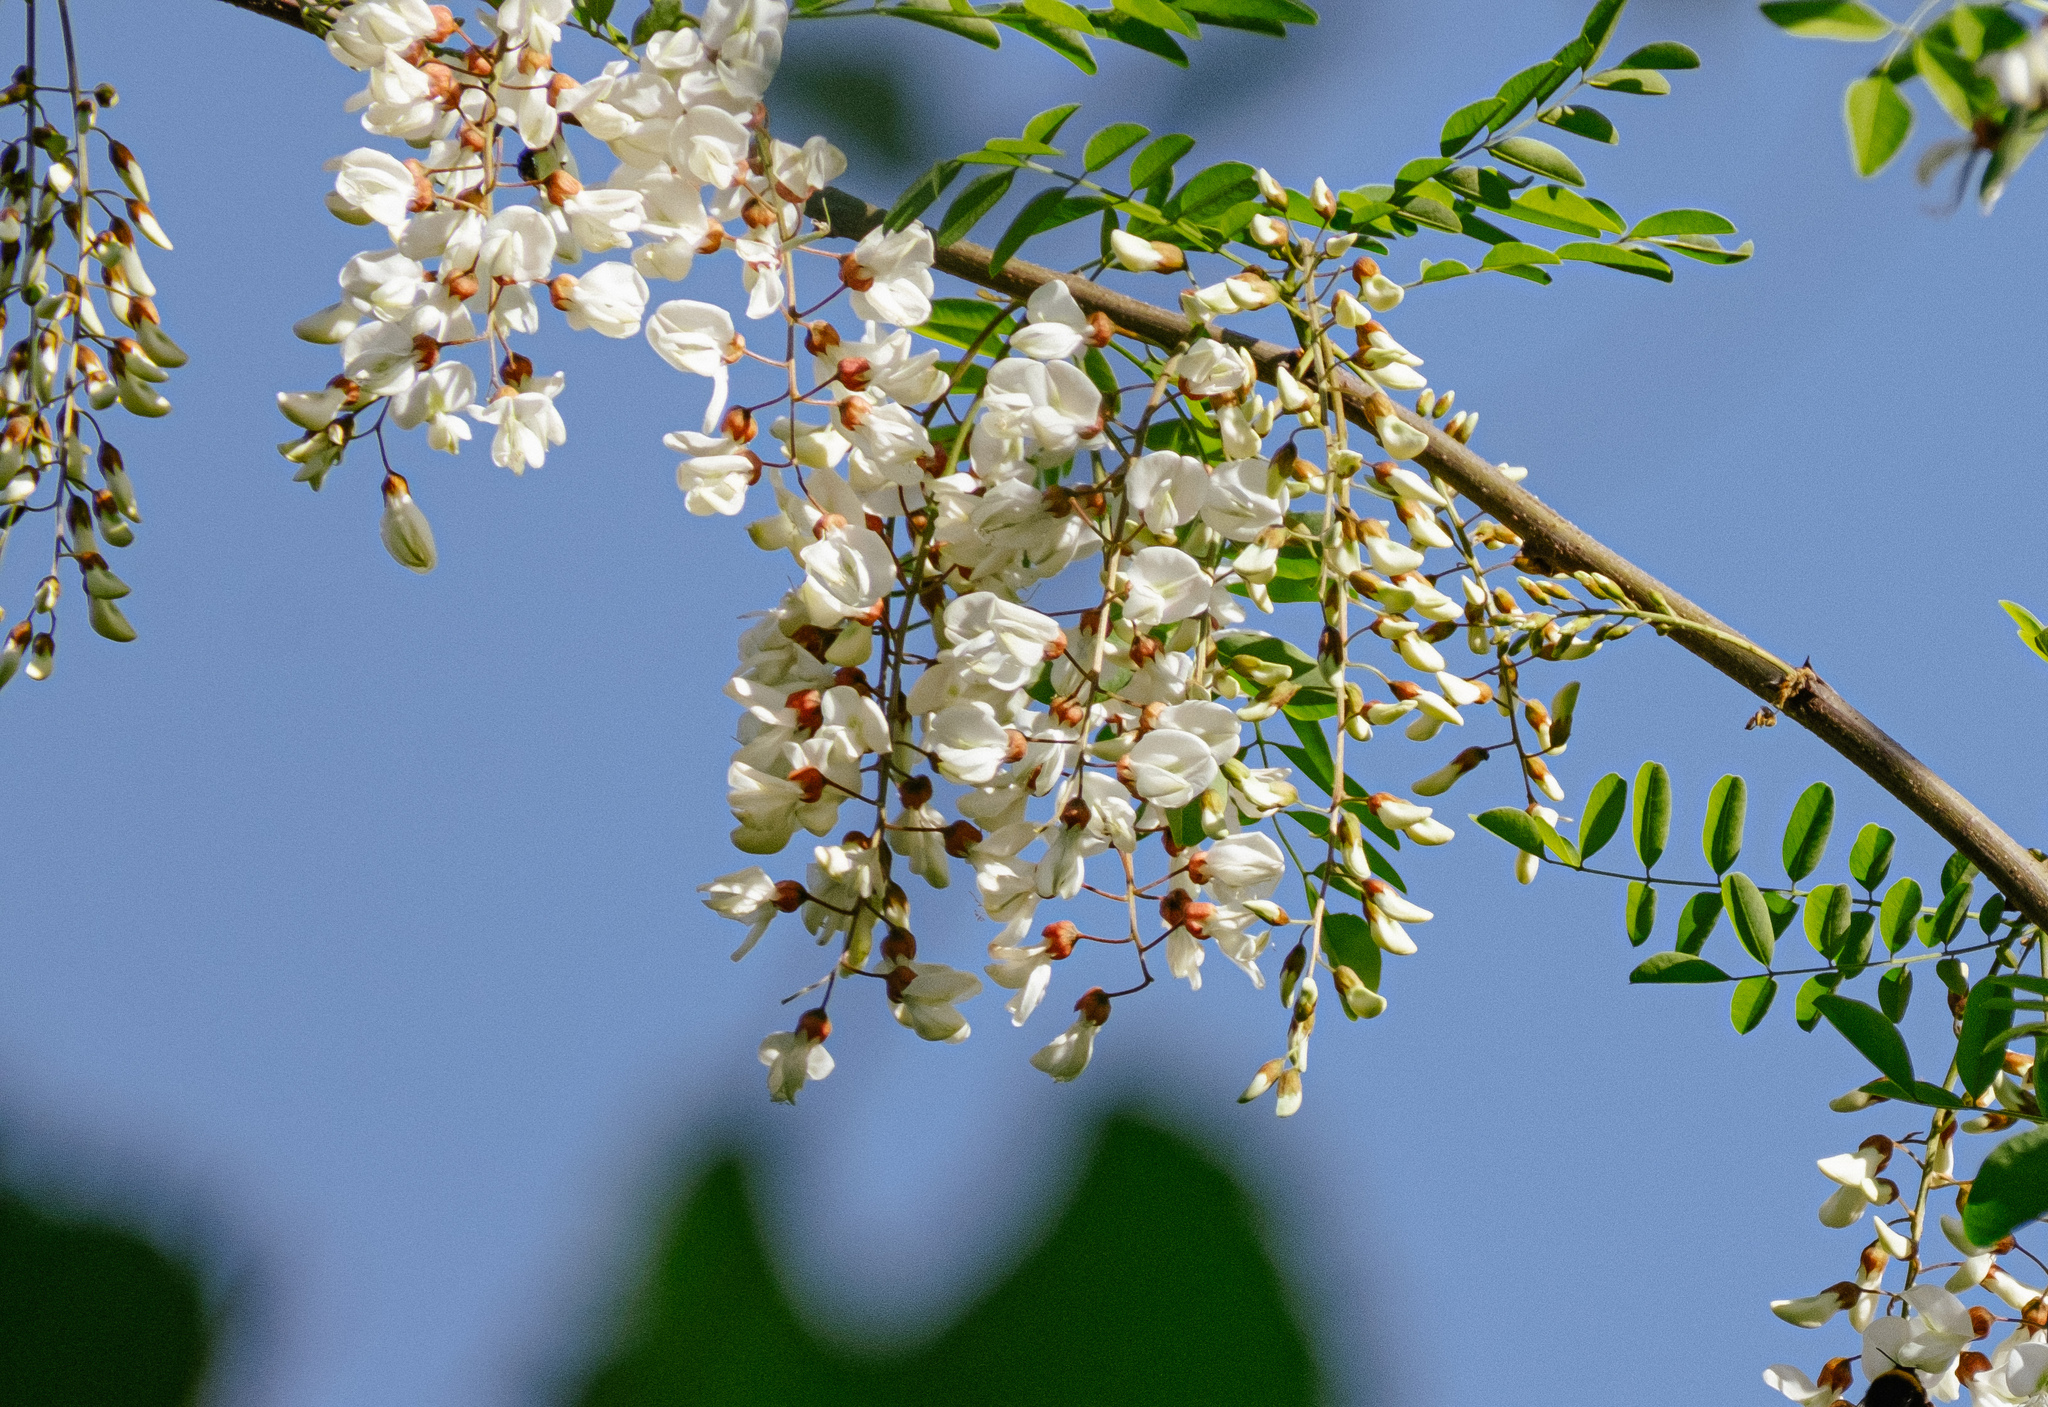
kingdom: Plantae
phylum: Tracheophyta
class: Magnoliopsida
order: Fabales
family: Fabaceae
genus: Robinia
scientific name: Robinia pseudoacacia
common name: Black locust
